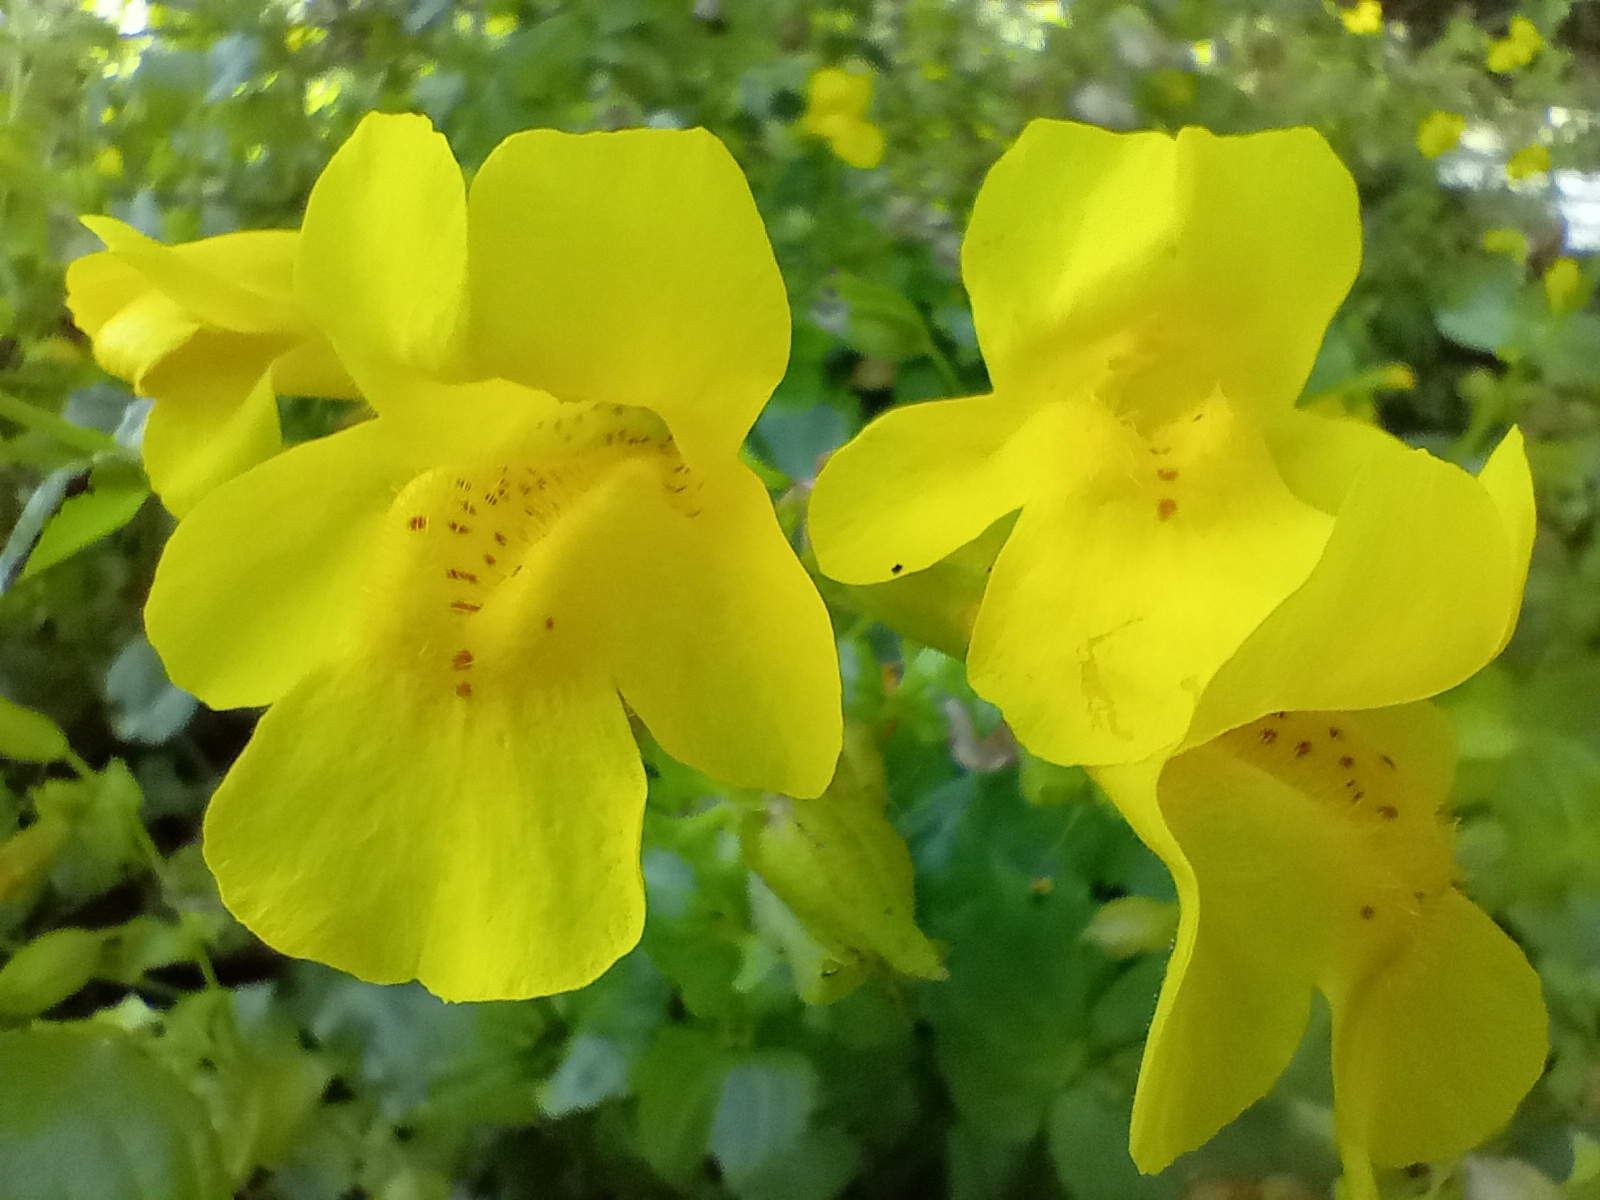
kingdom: Plantae
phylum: Tracheophyta
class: Magnoliopsida
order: Lamiales
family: Phrymaceae
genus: Erythranthe
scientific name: Erythranthe guttata
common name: Monkeyflower
